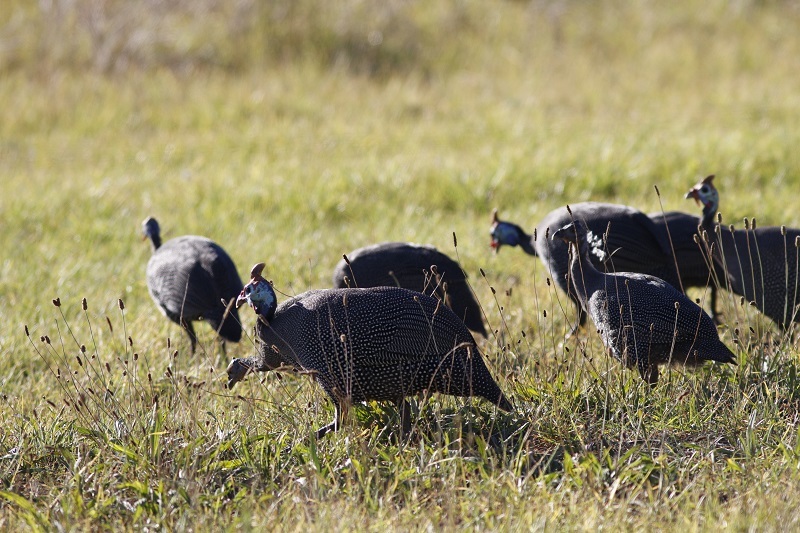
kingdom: Animalia
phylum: Chordata
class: Aves
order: Galliformes
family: Numididae
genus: Numida
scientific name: Numida meleagris
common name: Helmeted guineafowl
